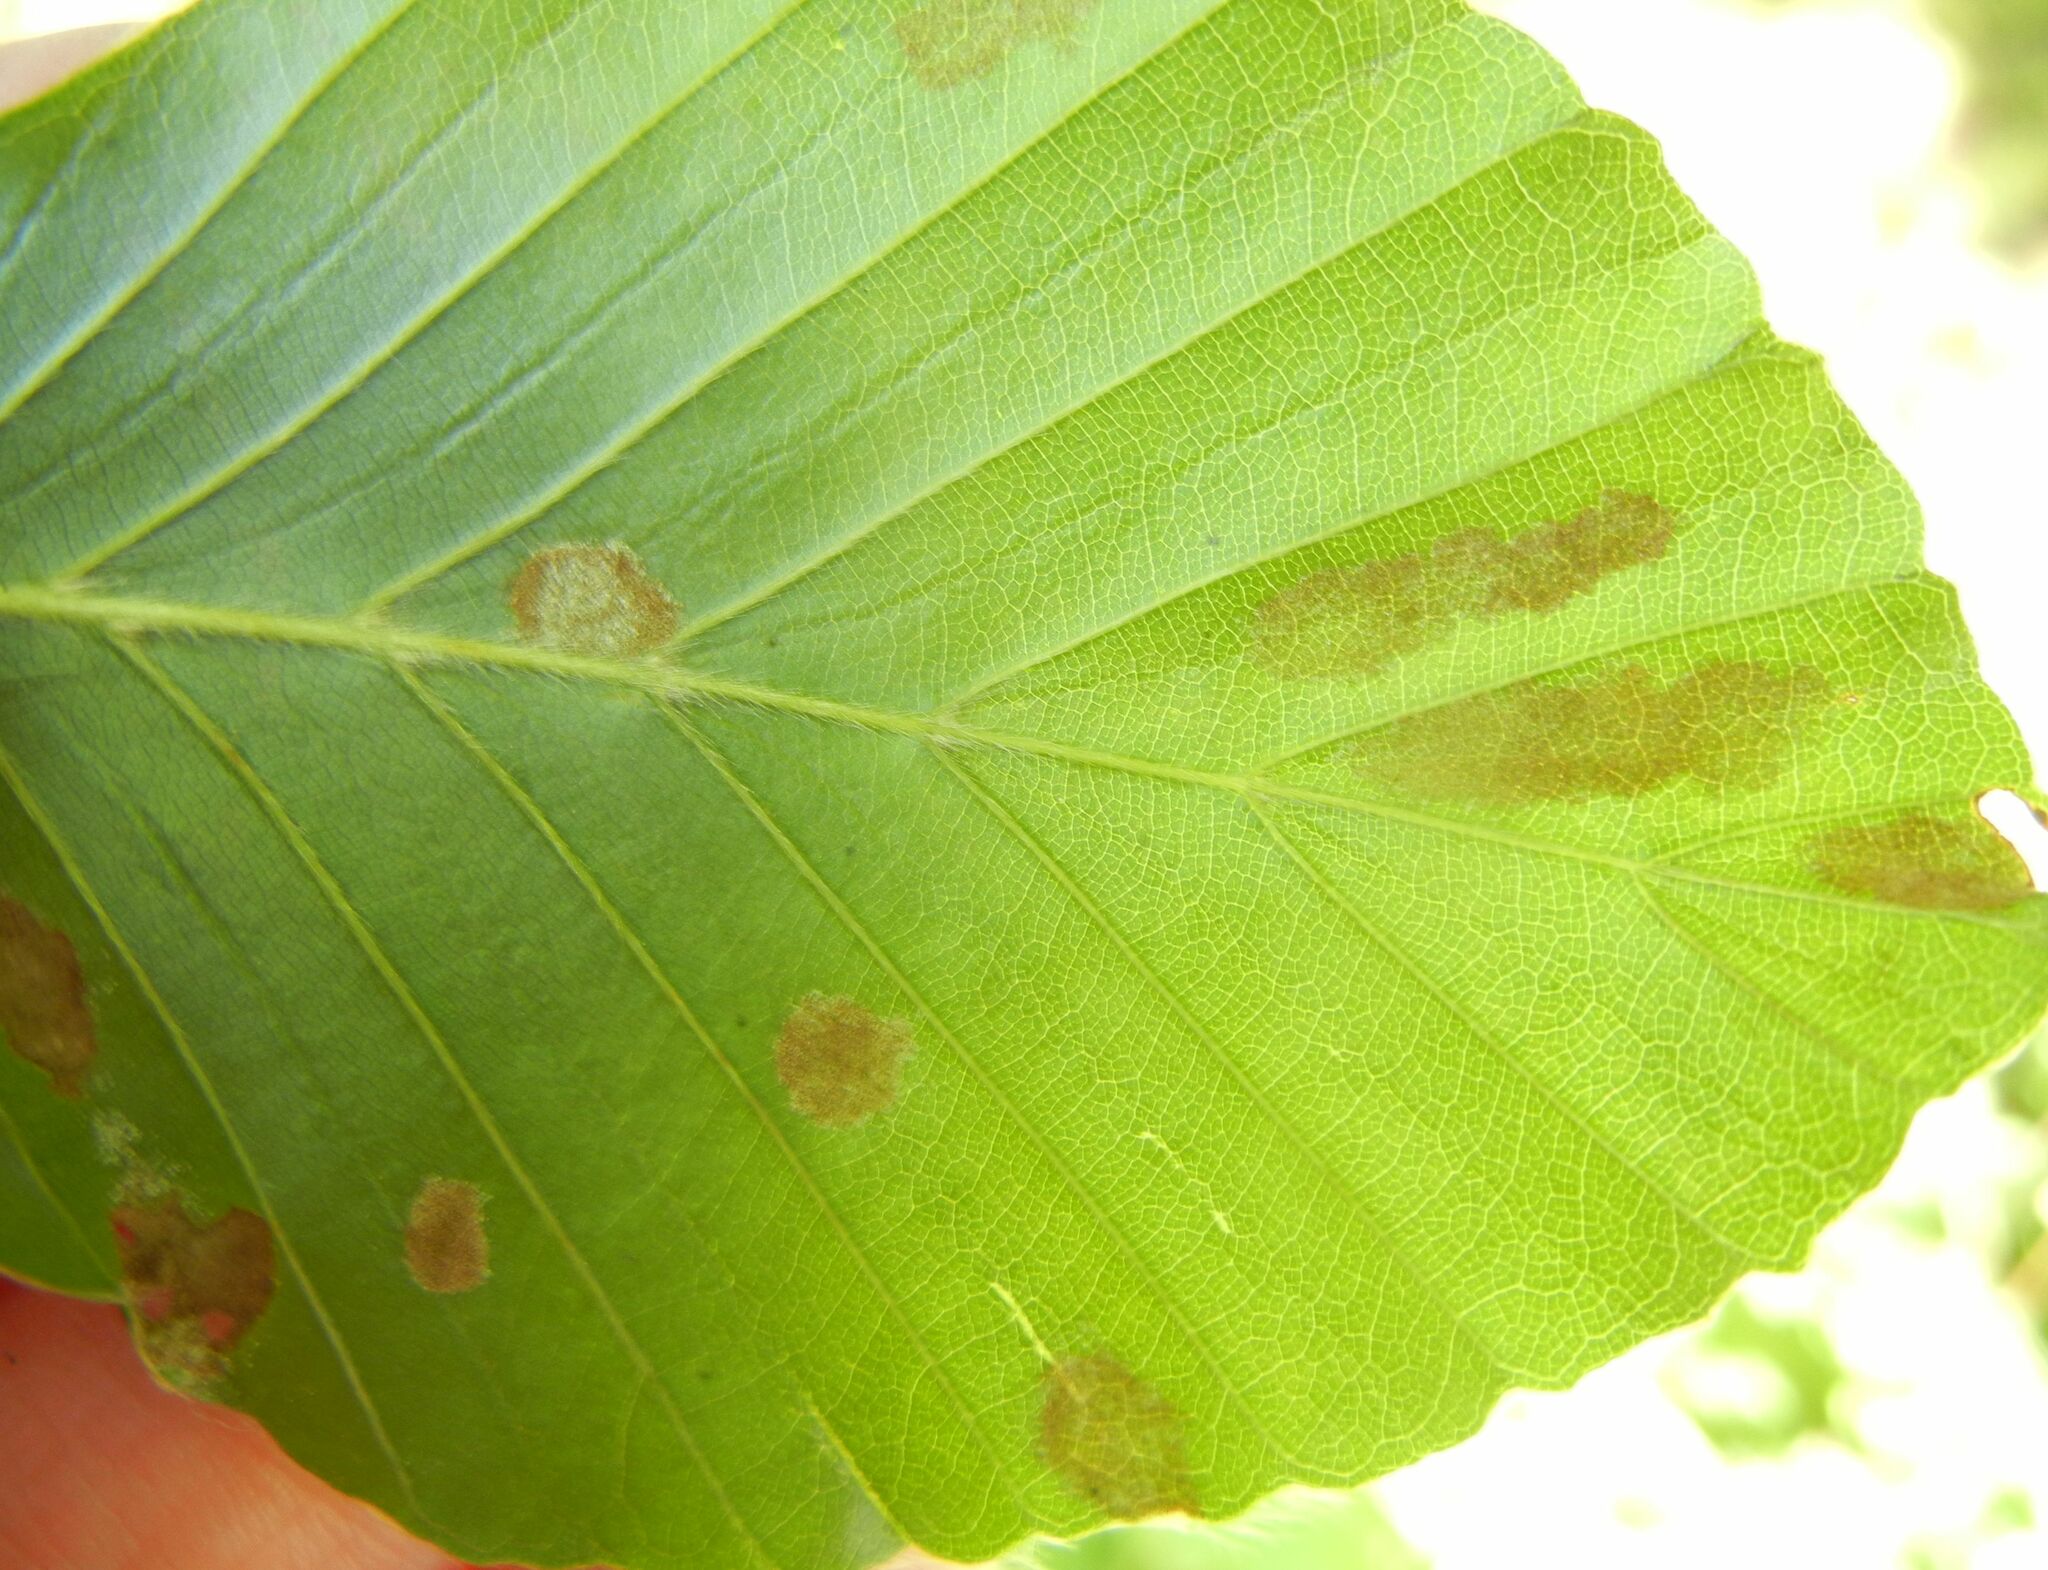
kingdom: Animalia
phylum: Arthropoda
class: Arachnida
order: Trombidiformes
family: Eriophyidae
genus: Aceria
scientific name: Aceria nervisequa
